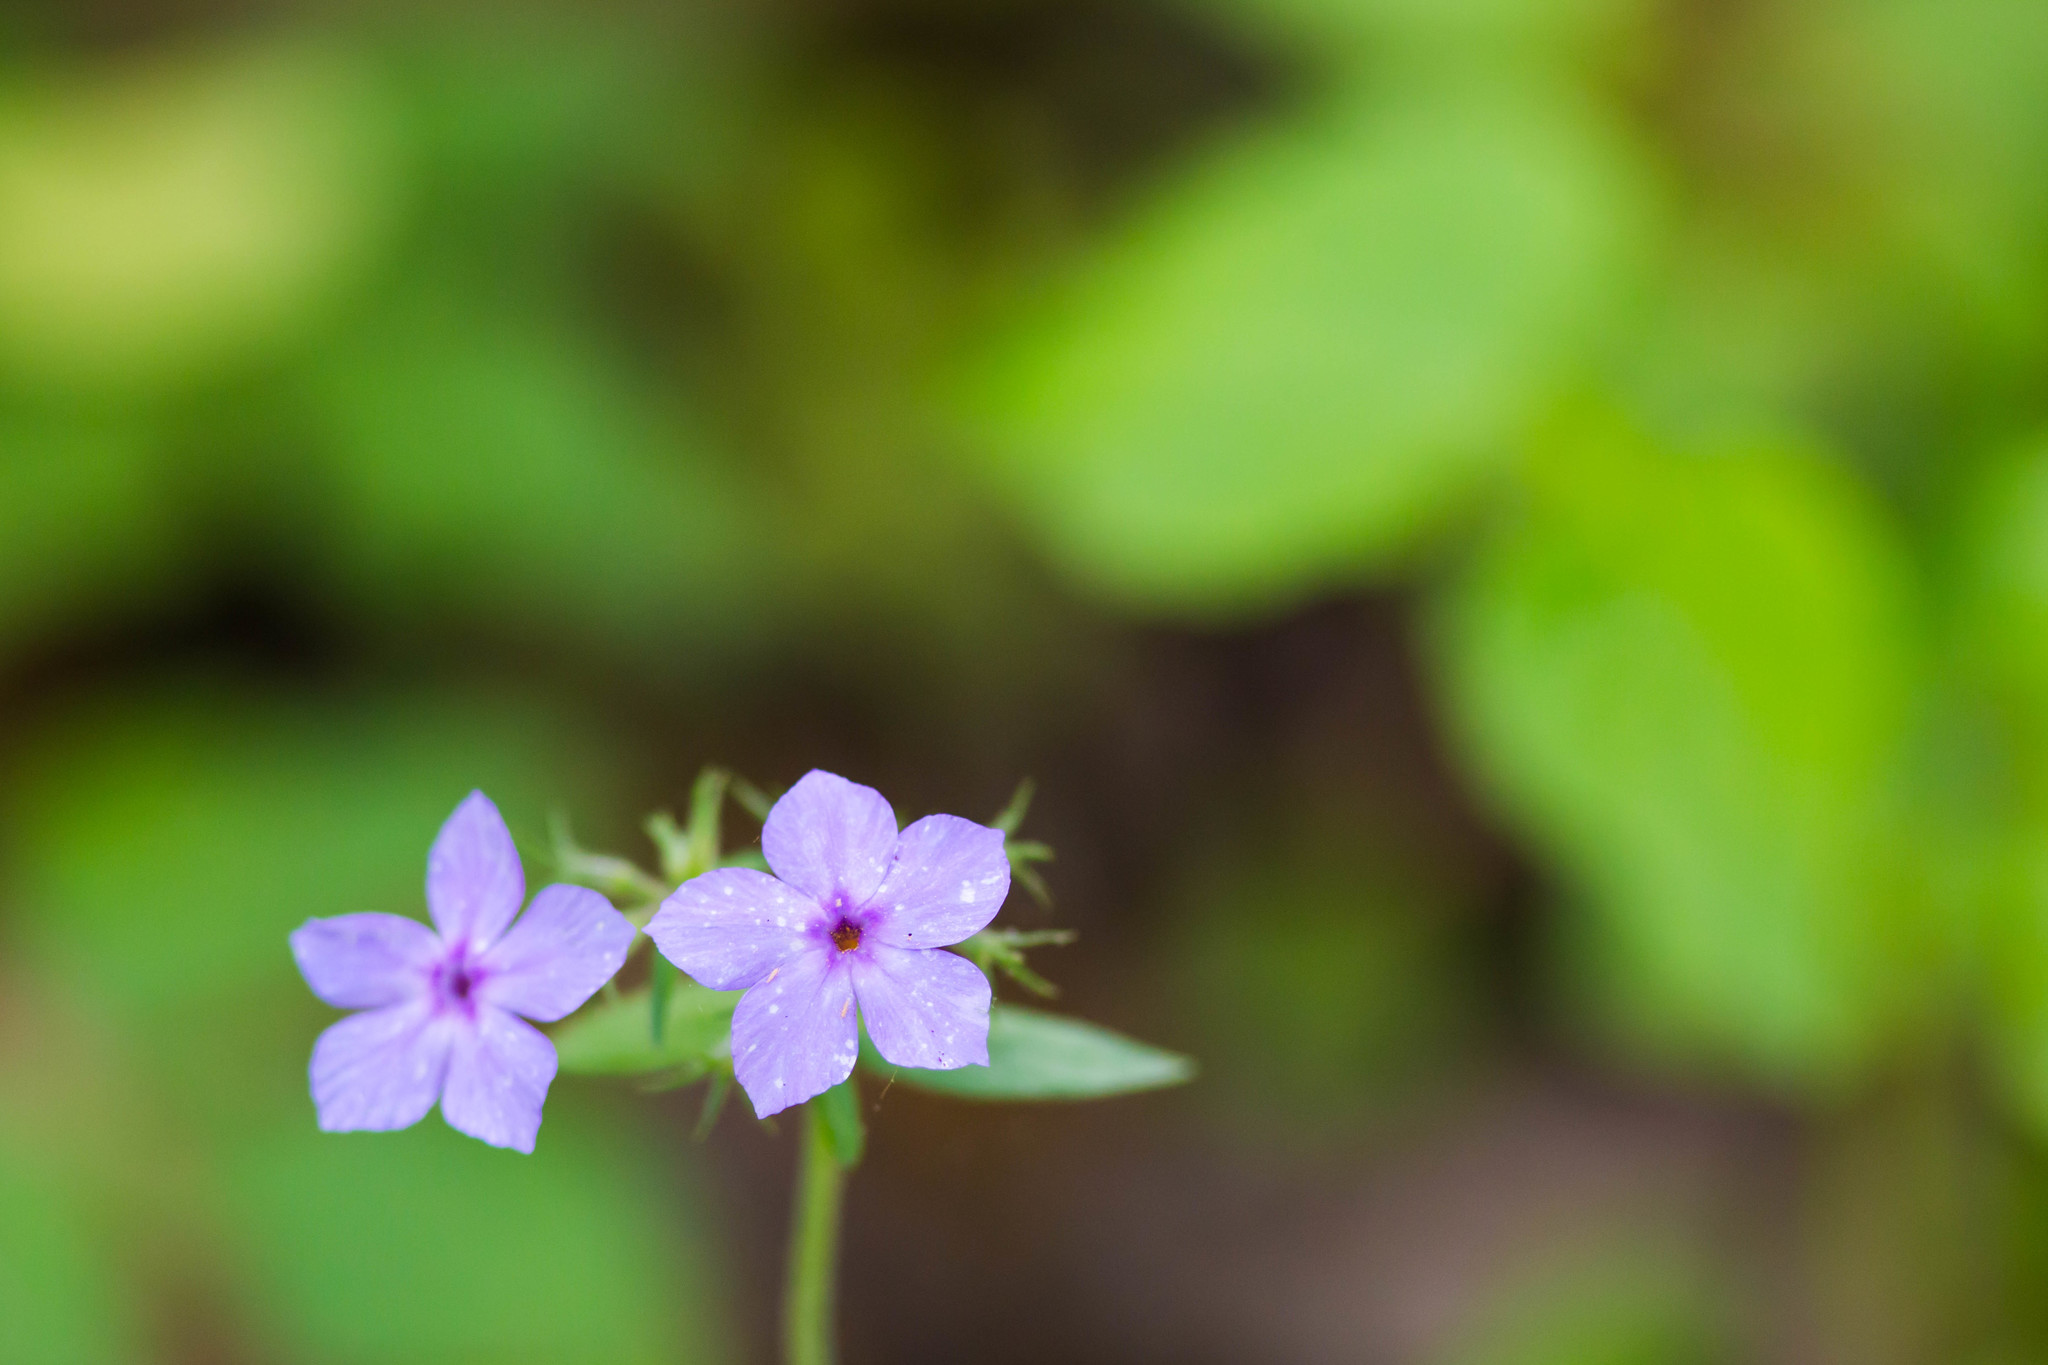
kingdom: Plantae
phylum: Tracheophyta
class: Magnoliopsida
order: Ericales
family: Polemoniaceae
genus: Phlox
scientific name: Phlox divaricata
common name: Blue phlox
